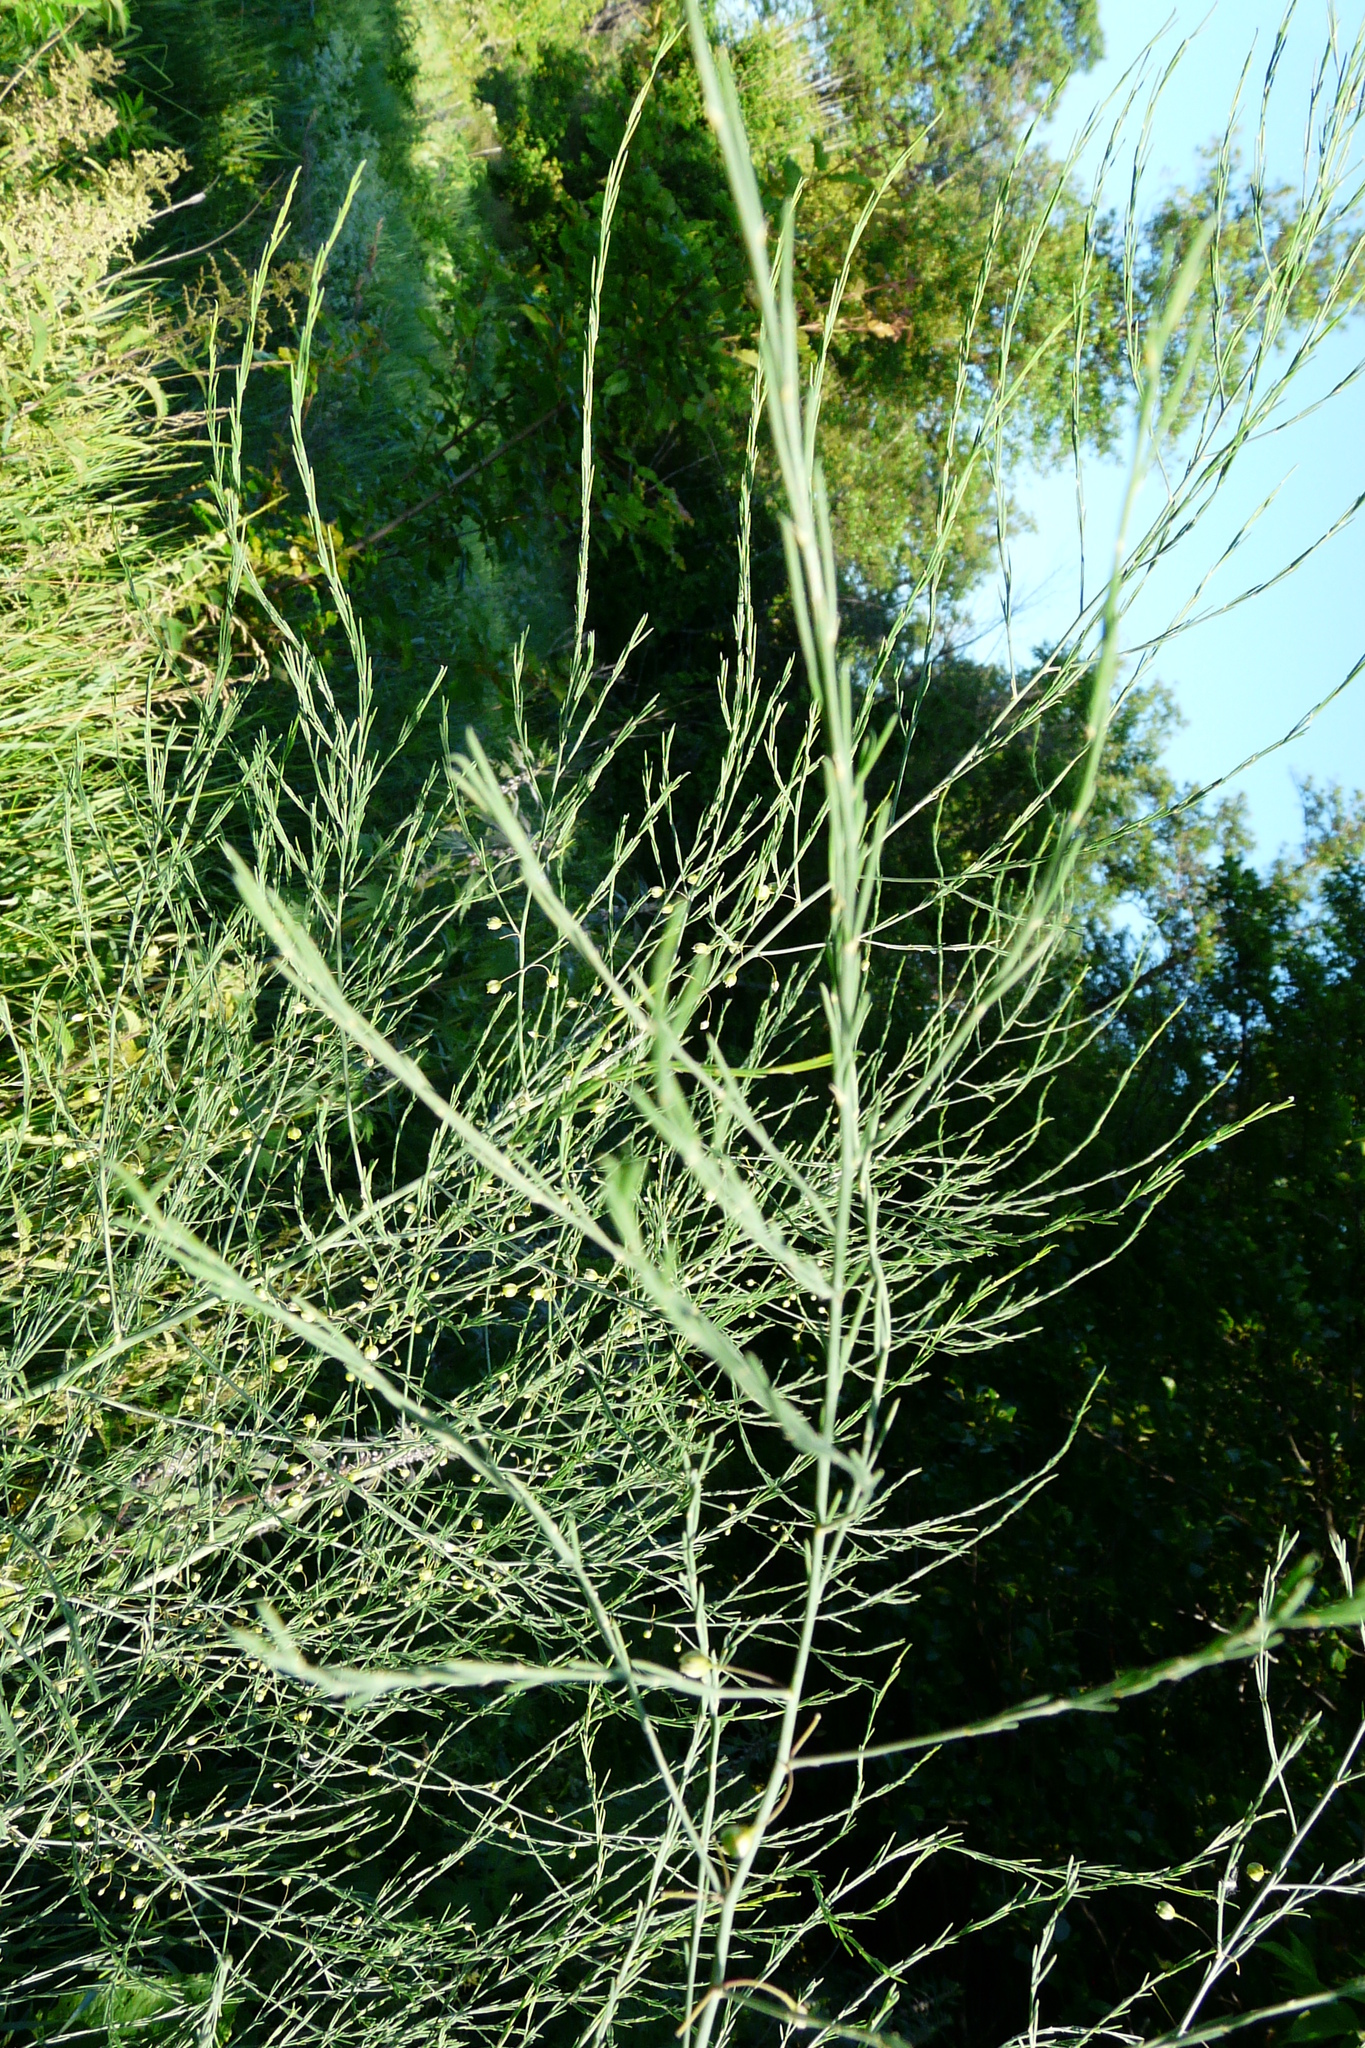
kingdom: Plantae
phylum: Tracheophyta
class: Liliopsida
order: Asparagales
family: Asparagaceae
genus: Asparagus
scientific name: Asparagus officinalis
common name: Garden asparagus
